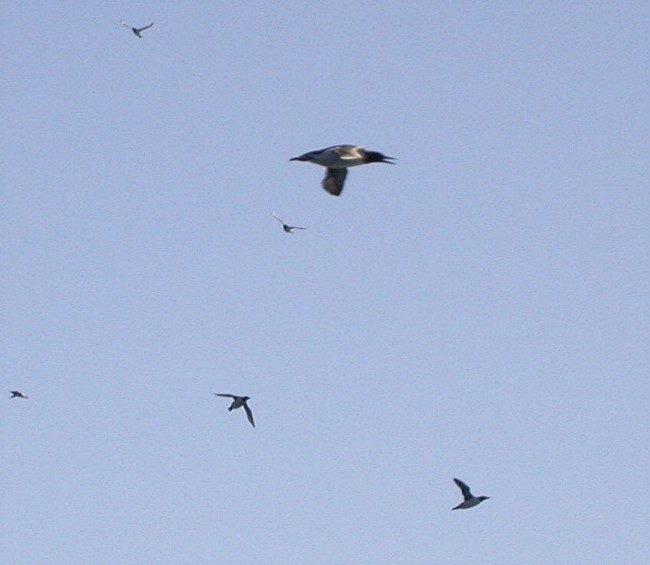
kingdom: Animalia
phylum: Chordata
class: Aves
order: Charadriiformes
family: Alcidae
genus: Uria
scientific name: Uria aalge
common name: Common murre
